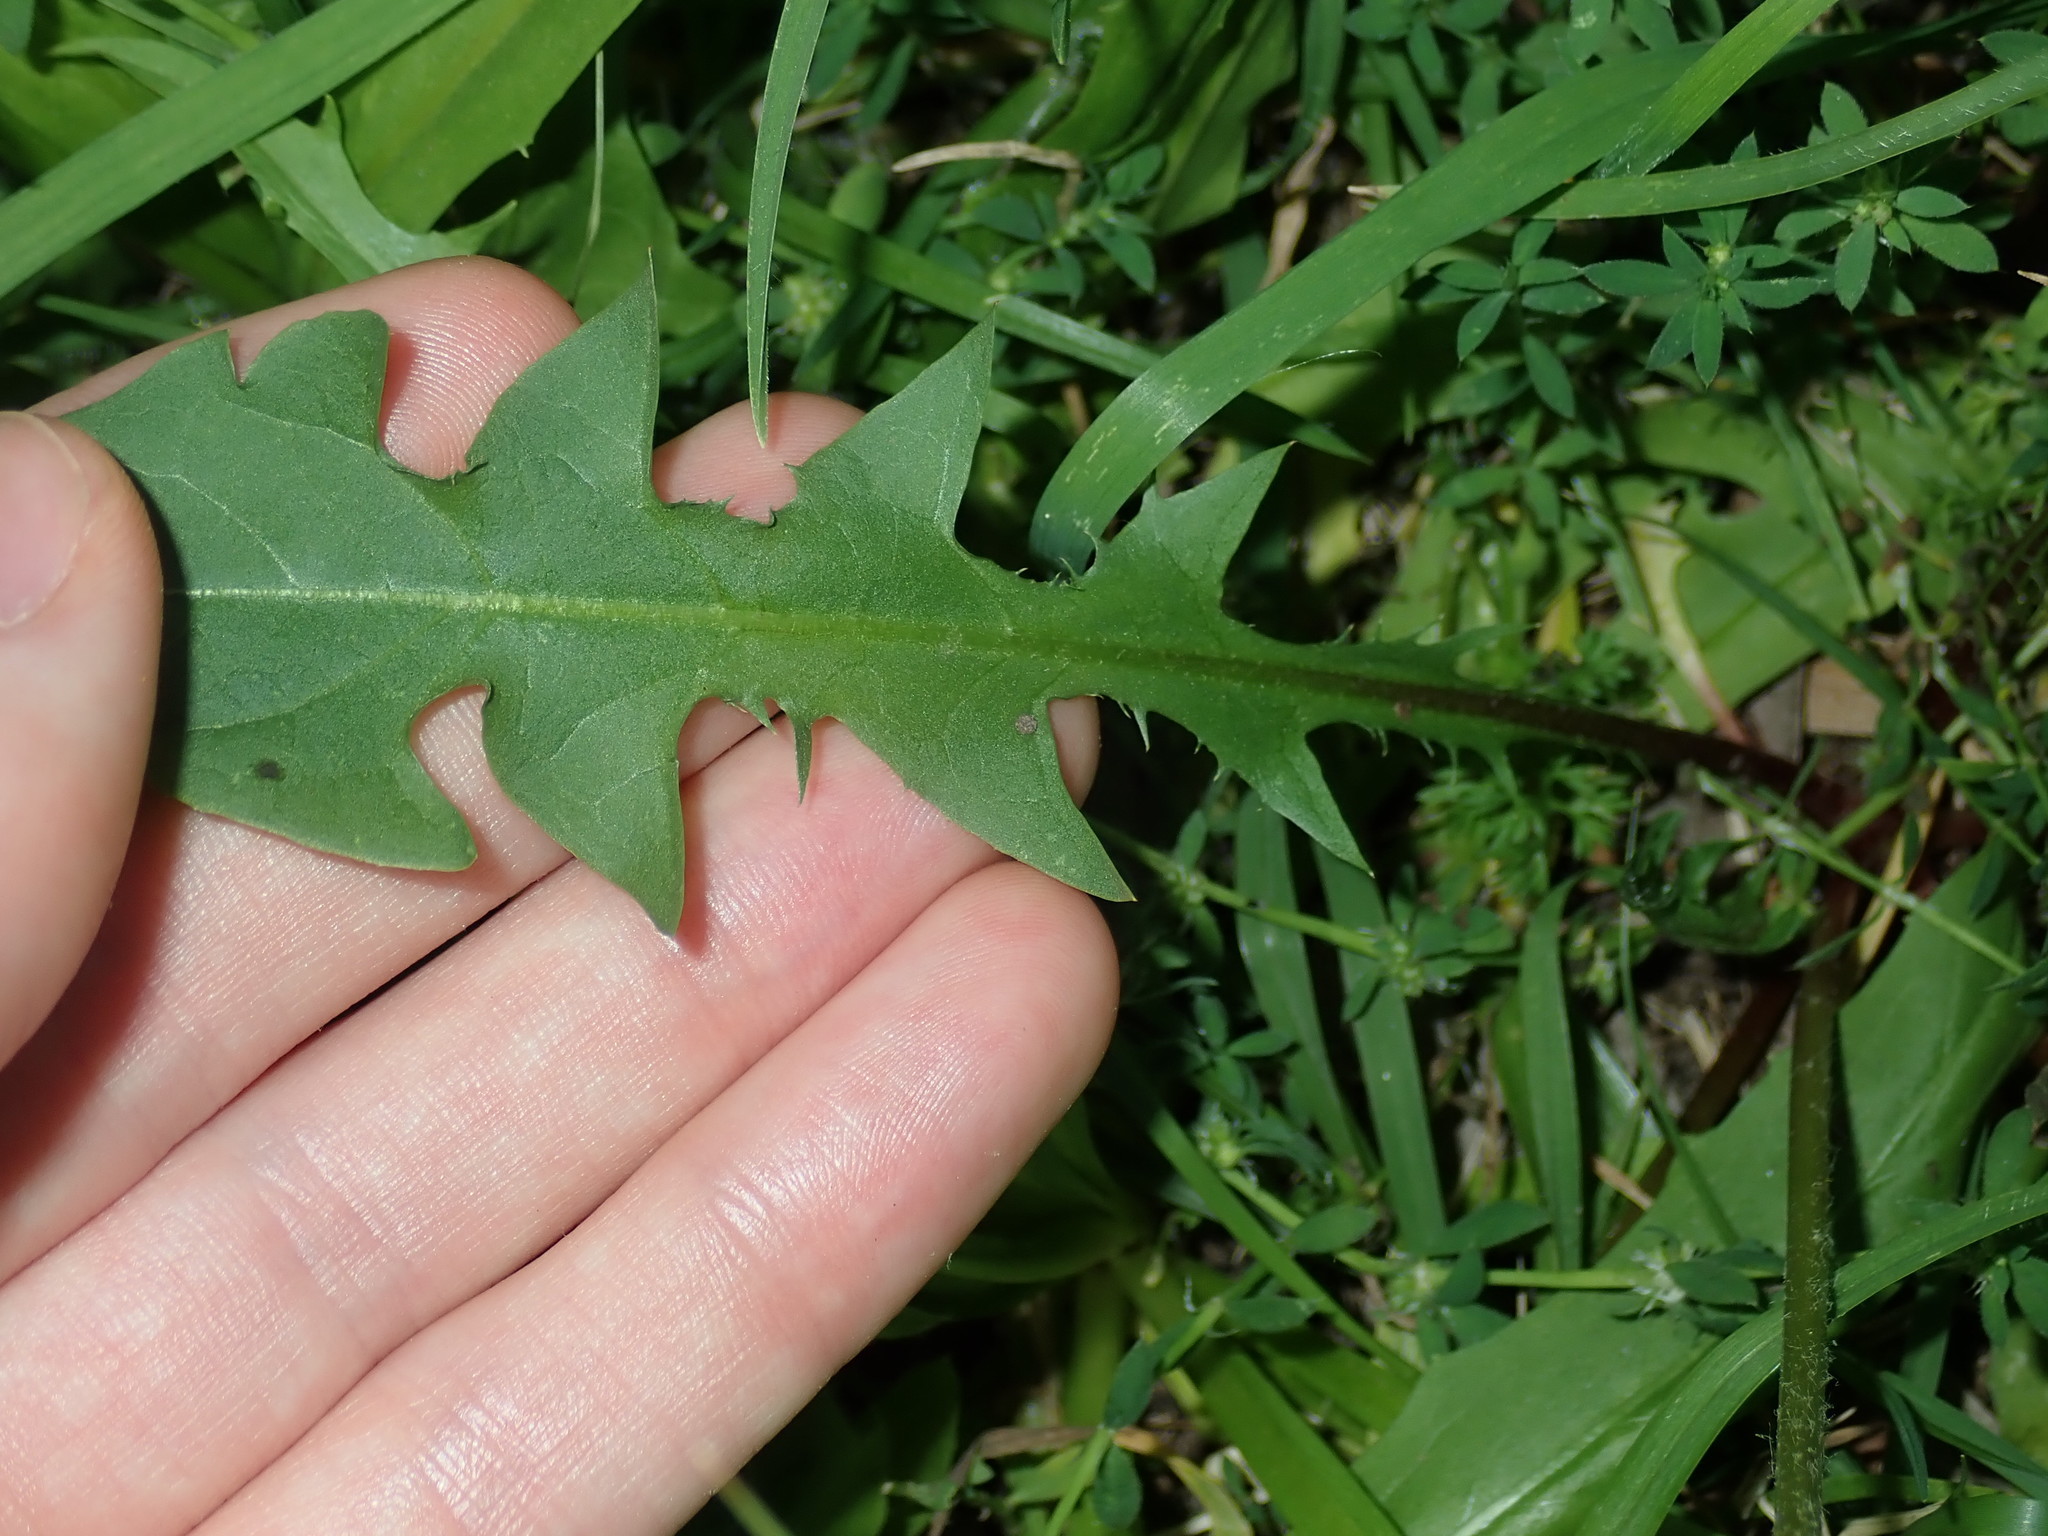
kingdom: Plantae
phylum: Tracheophyta
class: Magnoliopsida
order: Asterales
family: Asteraceae
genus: Taraxacum
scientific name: Taraxacum officinale
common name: Common dandelion
